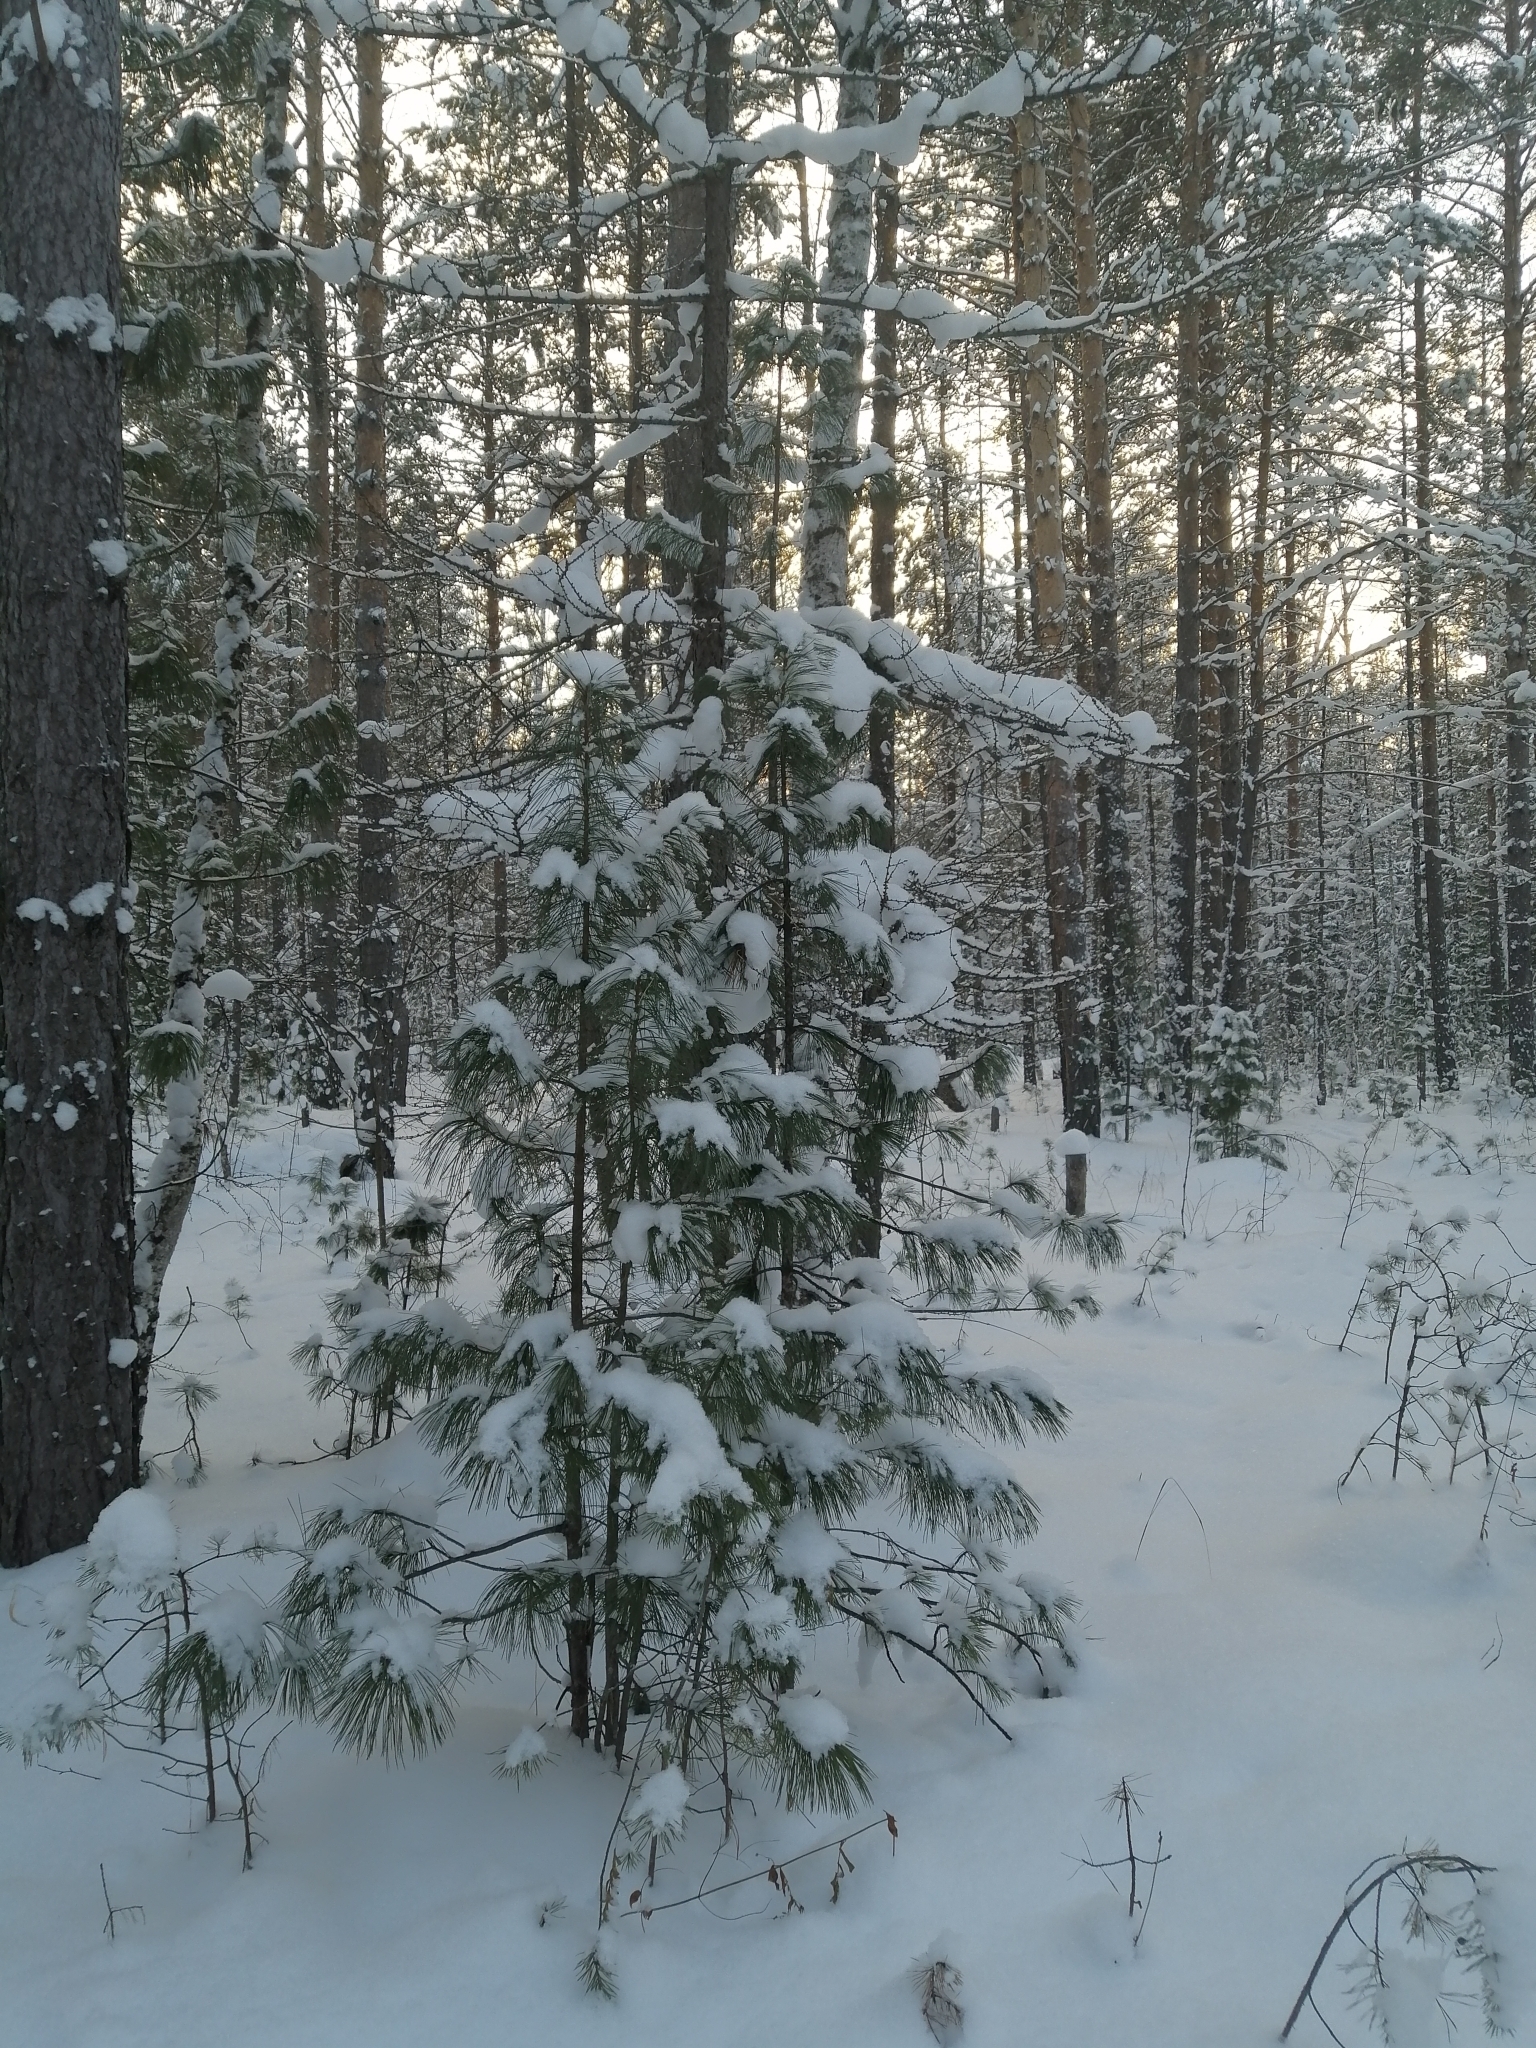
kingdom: Plantae
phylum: Tracheophyta
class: Pinopsida
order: Pinales
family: Pinaceae
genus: Pinus
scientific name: Pinus sibirica
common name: Siberian pine
